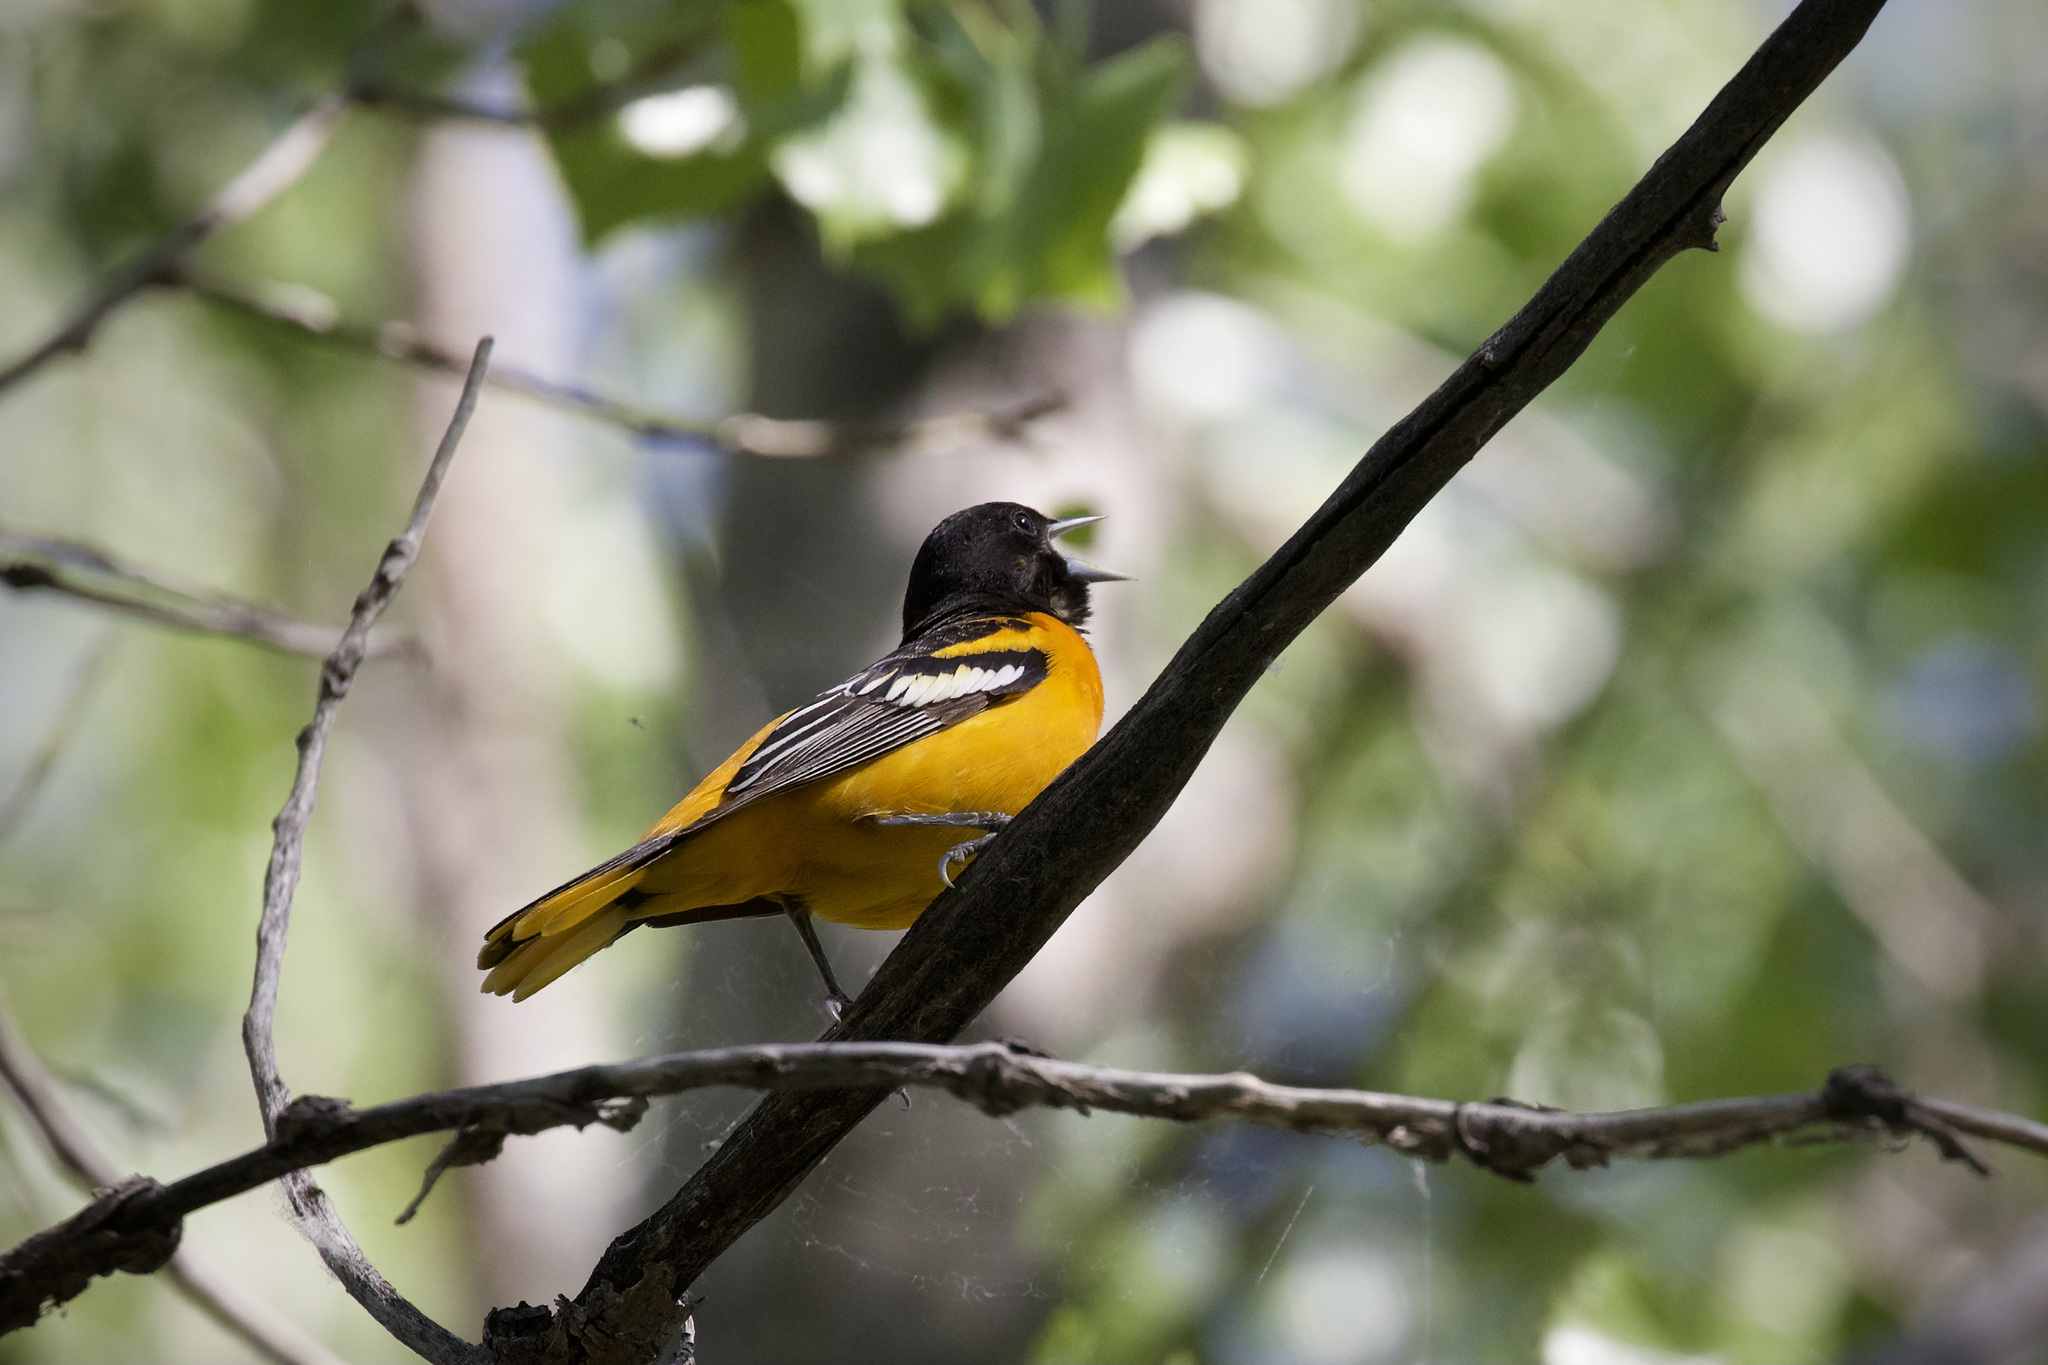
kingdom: Animalia
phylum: Chordata
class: Aves
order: Passeriformes
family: Icteridae
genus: Icterus
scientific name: Icterus galbula
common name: Baltimore oriole
